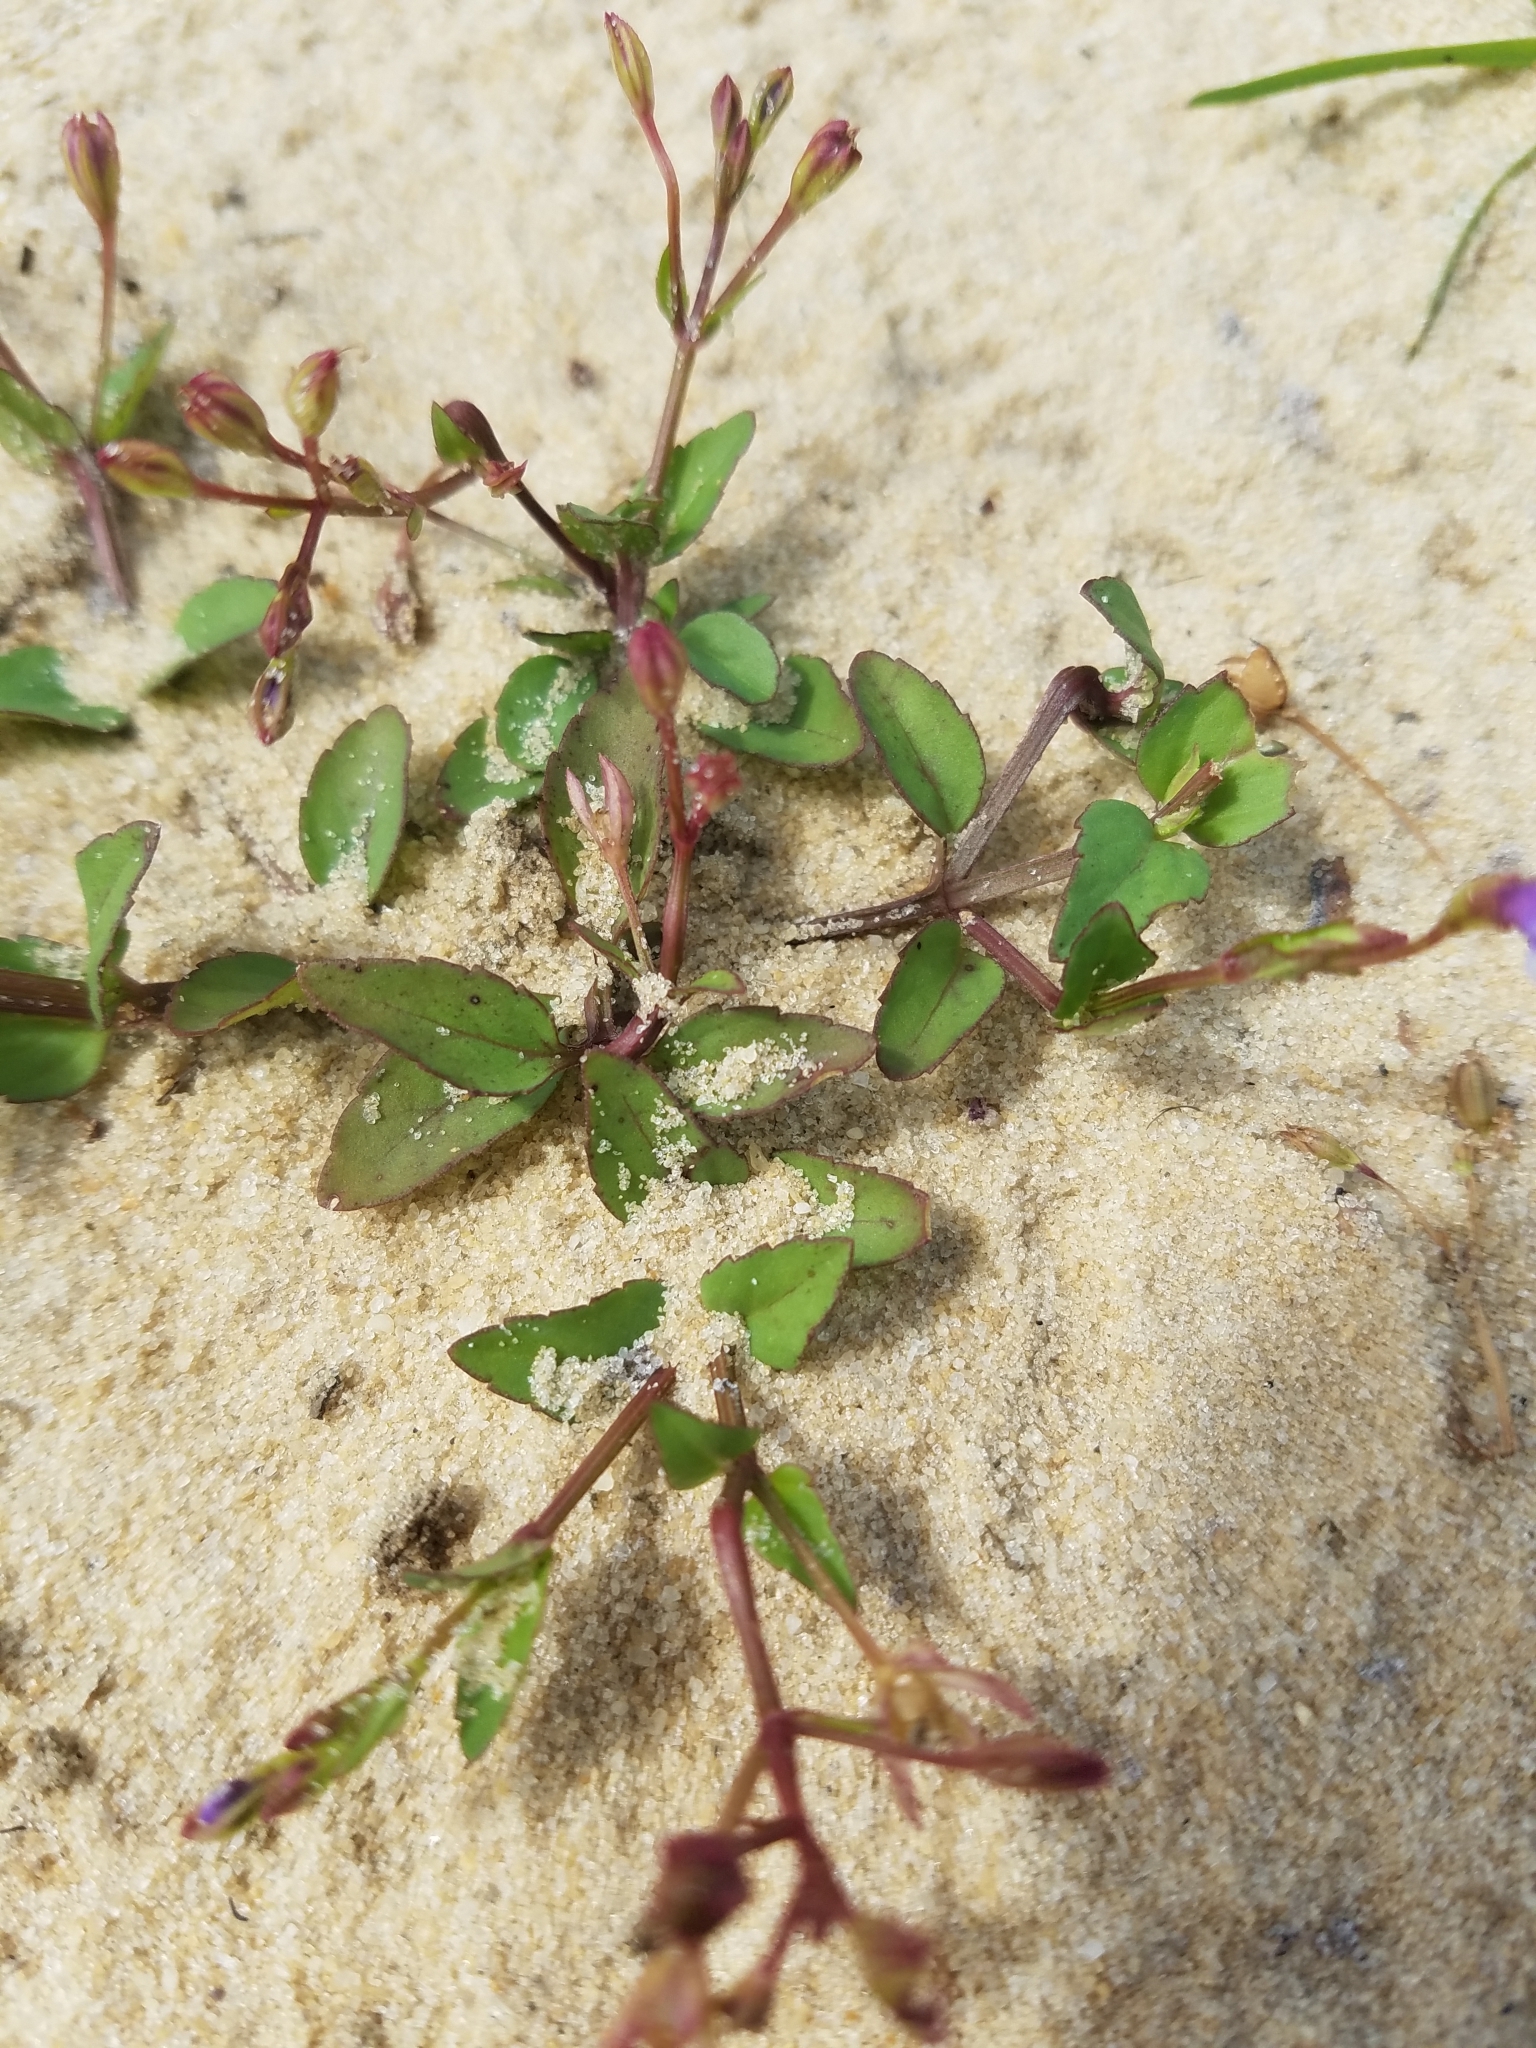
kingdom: Plantae
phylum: Tracheophyta
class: Magnoliopsida
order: Lamiales
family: Linderniaceae
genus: Torenia
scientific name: Torenia crustacea
